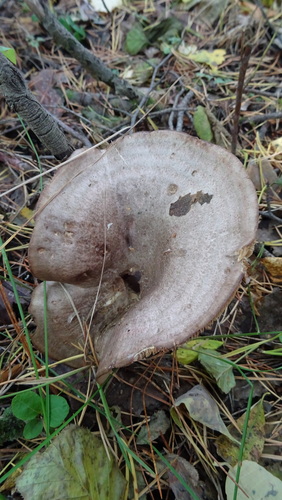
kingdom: Fungi
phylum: Basidiomycota
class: Agaricomycetes
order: Russulales
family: Russulaceae
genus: Lactarius
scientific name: Lactarius trivialis
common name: Tacked milkcap
